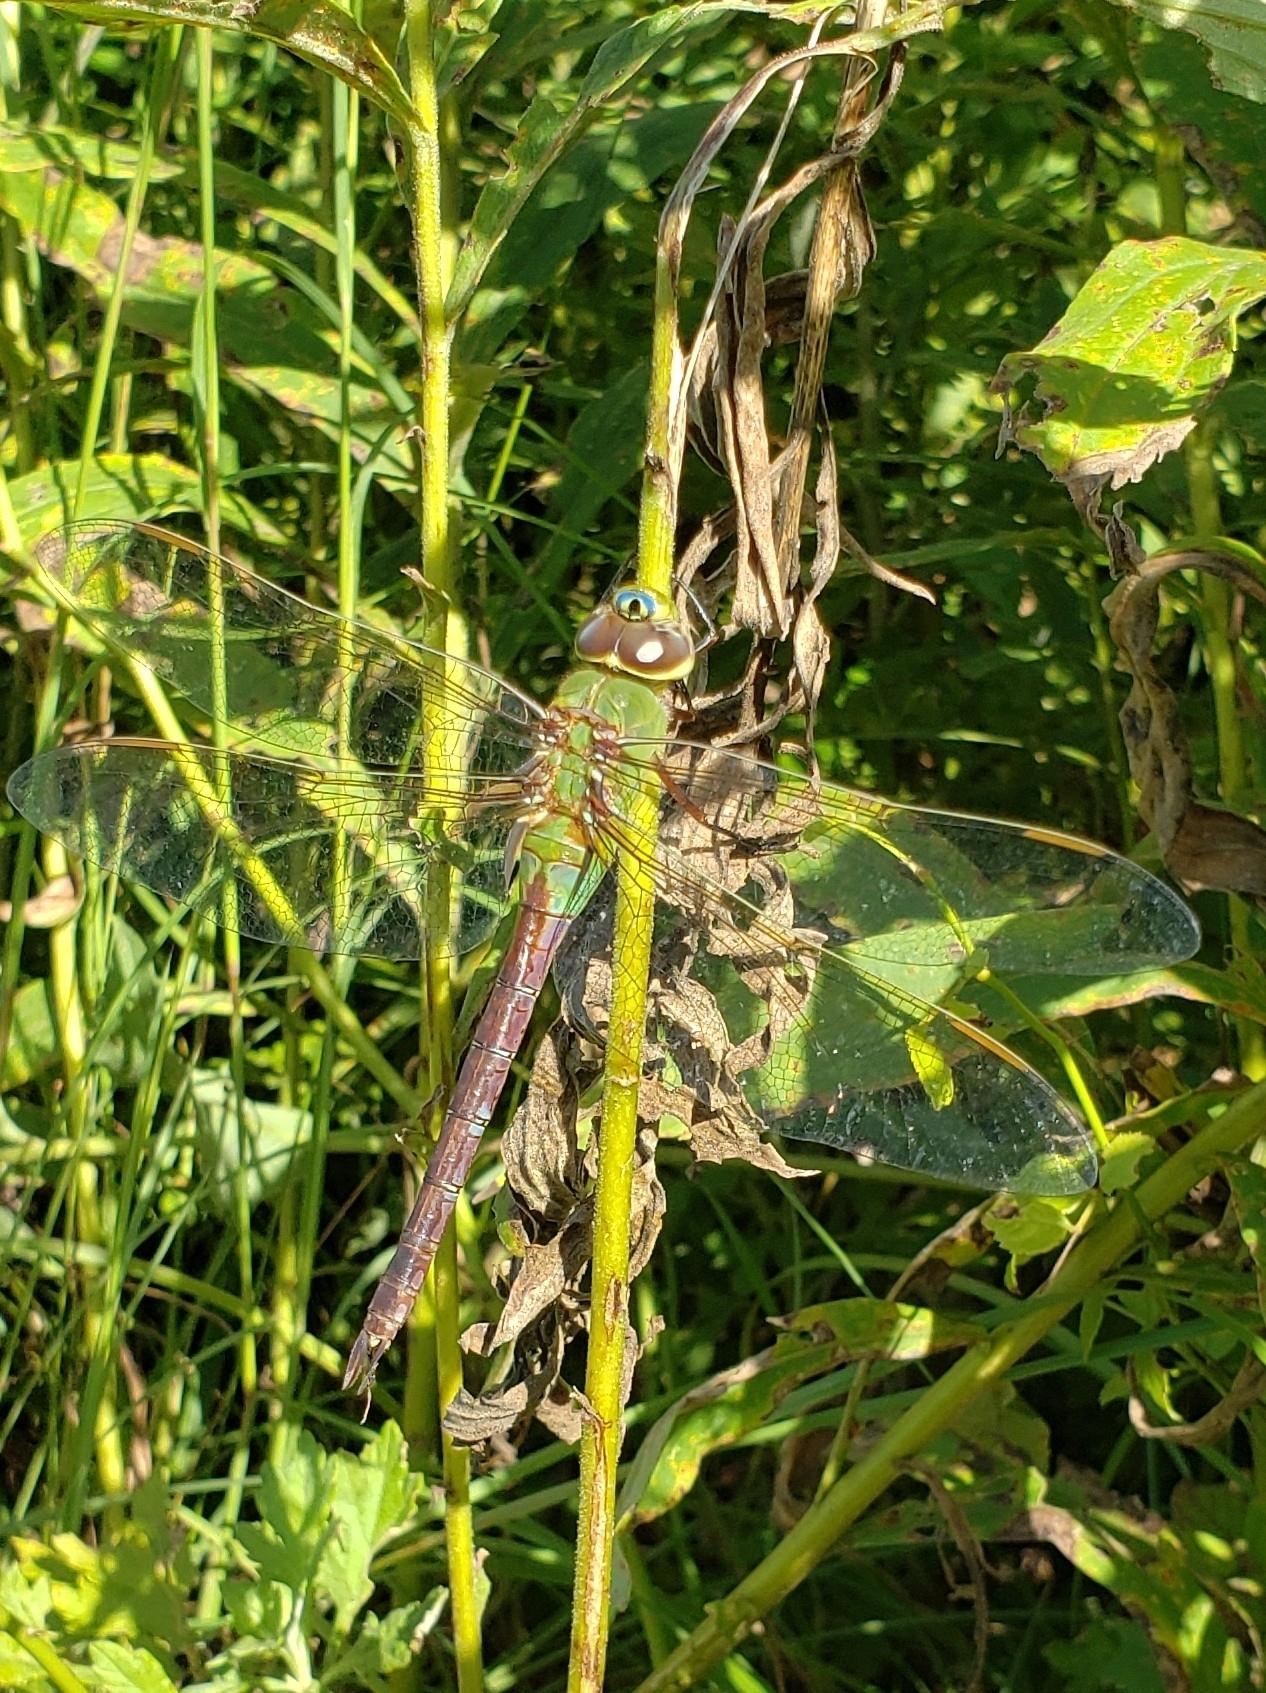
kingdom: Animalia
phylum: Arthropoda
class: Insecta
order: Odonata
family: Aeshnidae
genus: Anax
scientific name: Anax junius
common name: Common green darner
